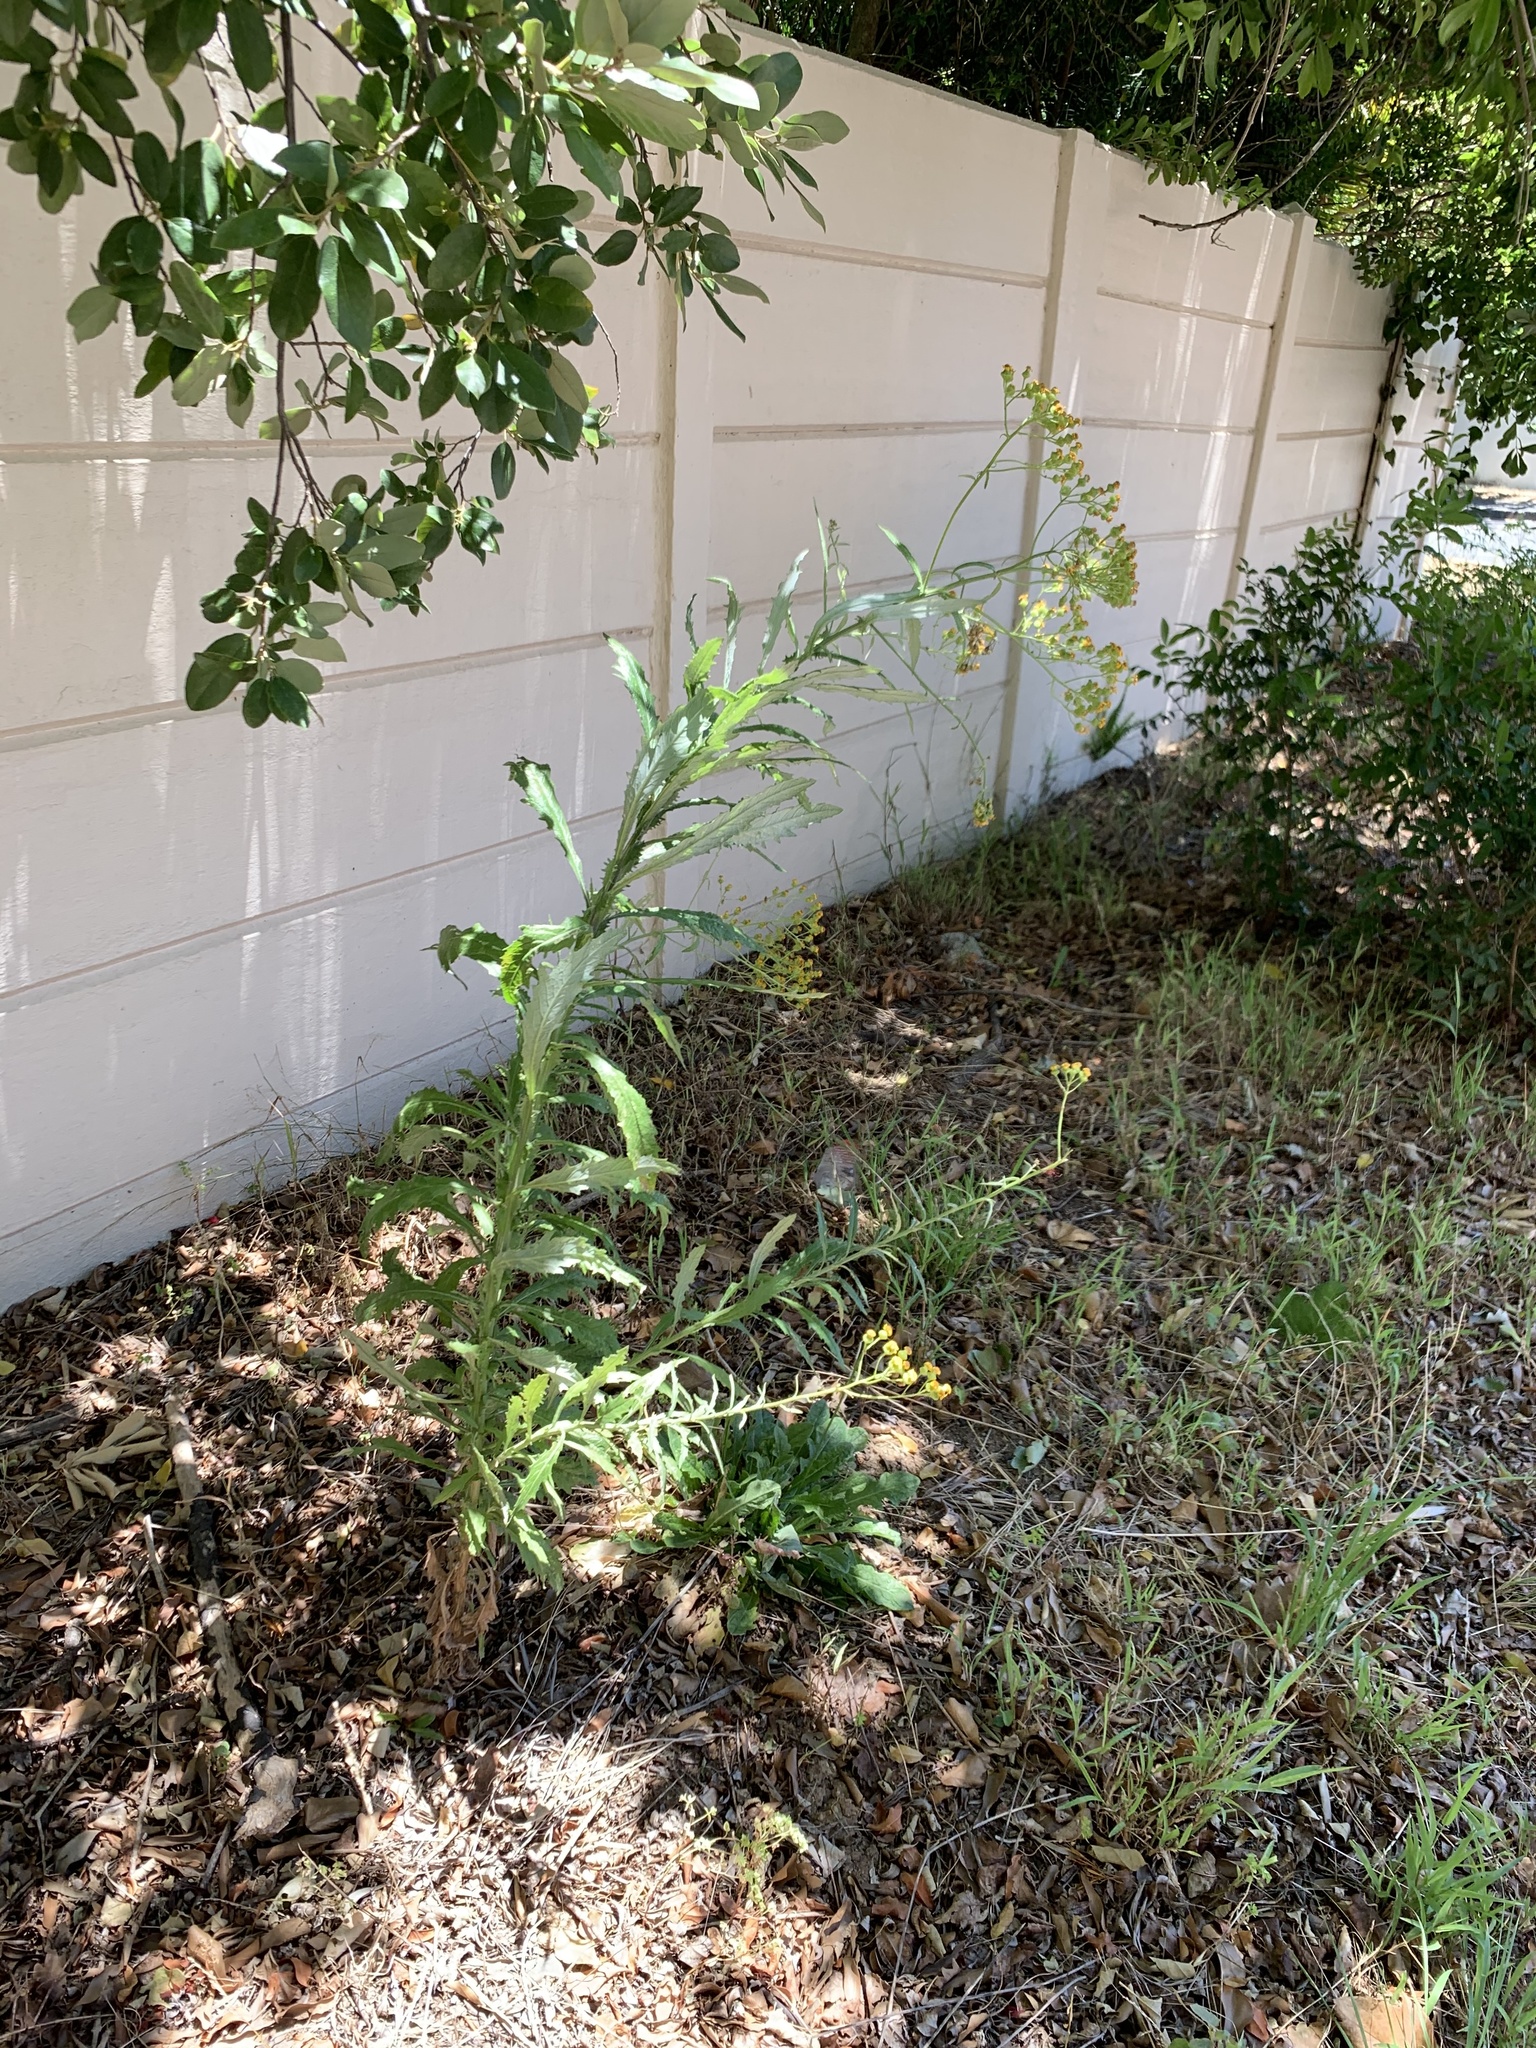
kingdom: Plantae
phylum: Tracheophyta
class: Magnoliopsida
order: Asterales
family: Asteraceae
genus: Senecio
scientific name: Senecio pterophorus
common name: Shoddy ragwort
